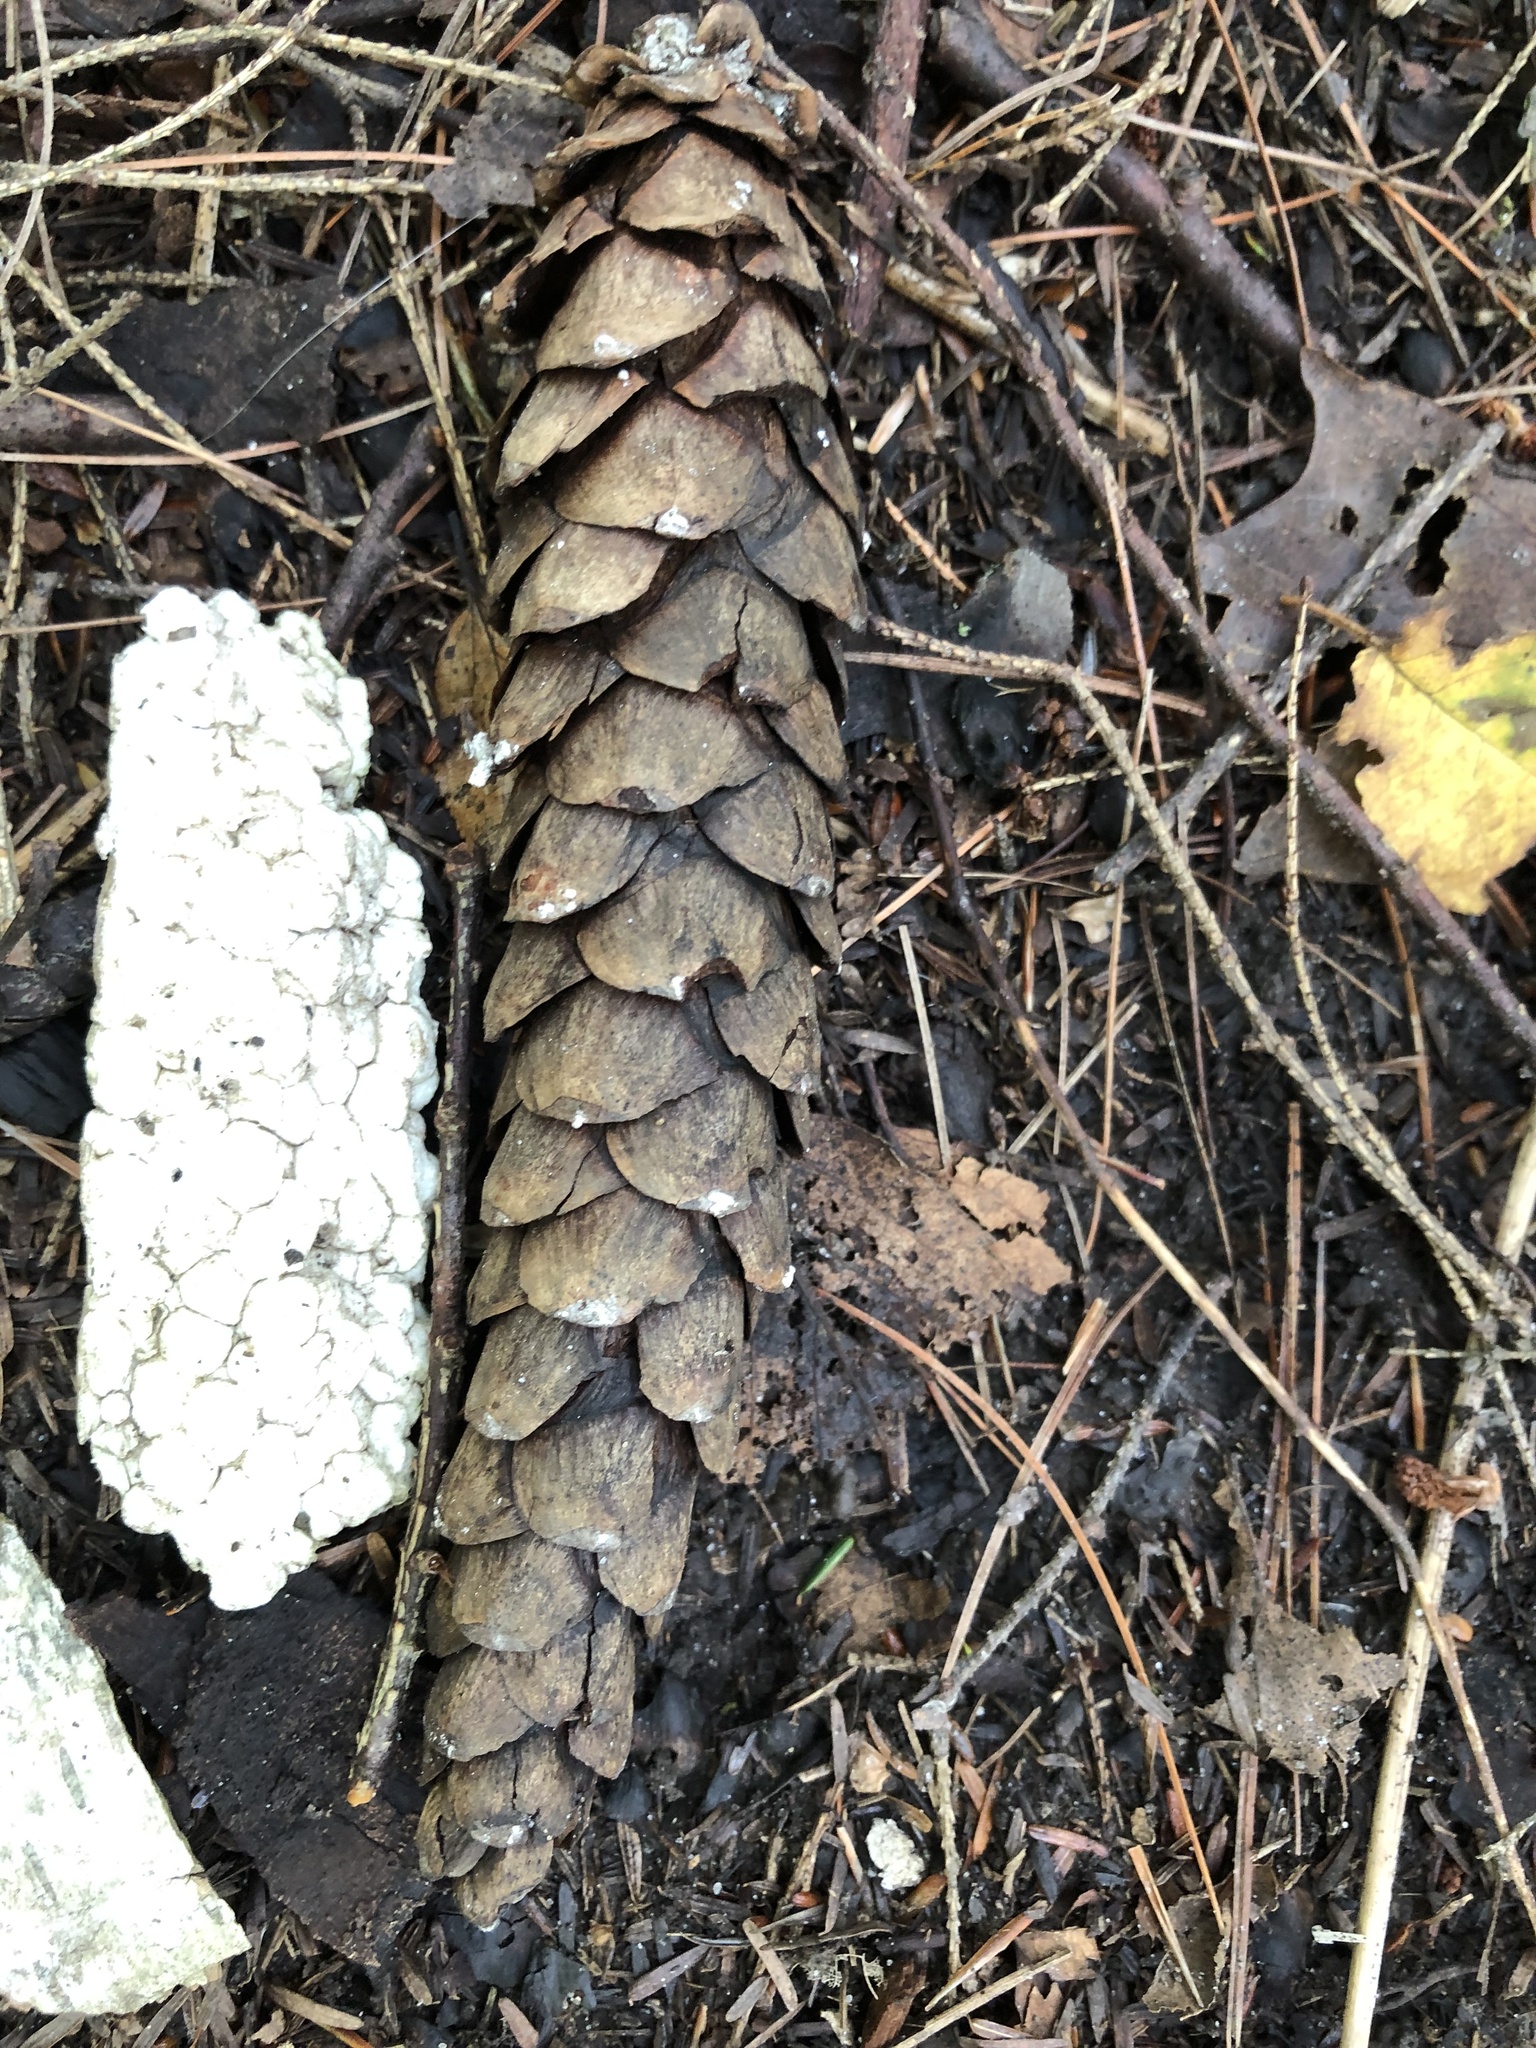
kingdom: Plantae
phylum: Tracheophyta
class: Pinopsida
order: Pinales
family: Pinaceae
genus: Pinus
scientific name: Pinus strobus
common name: Weymouth pine
